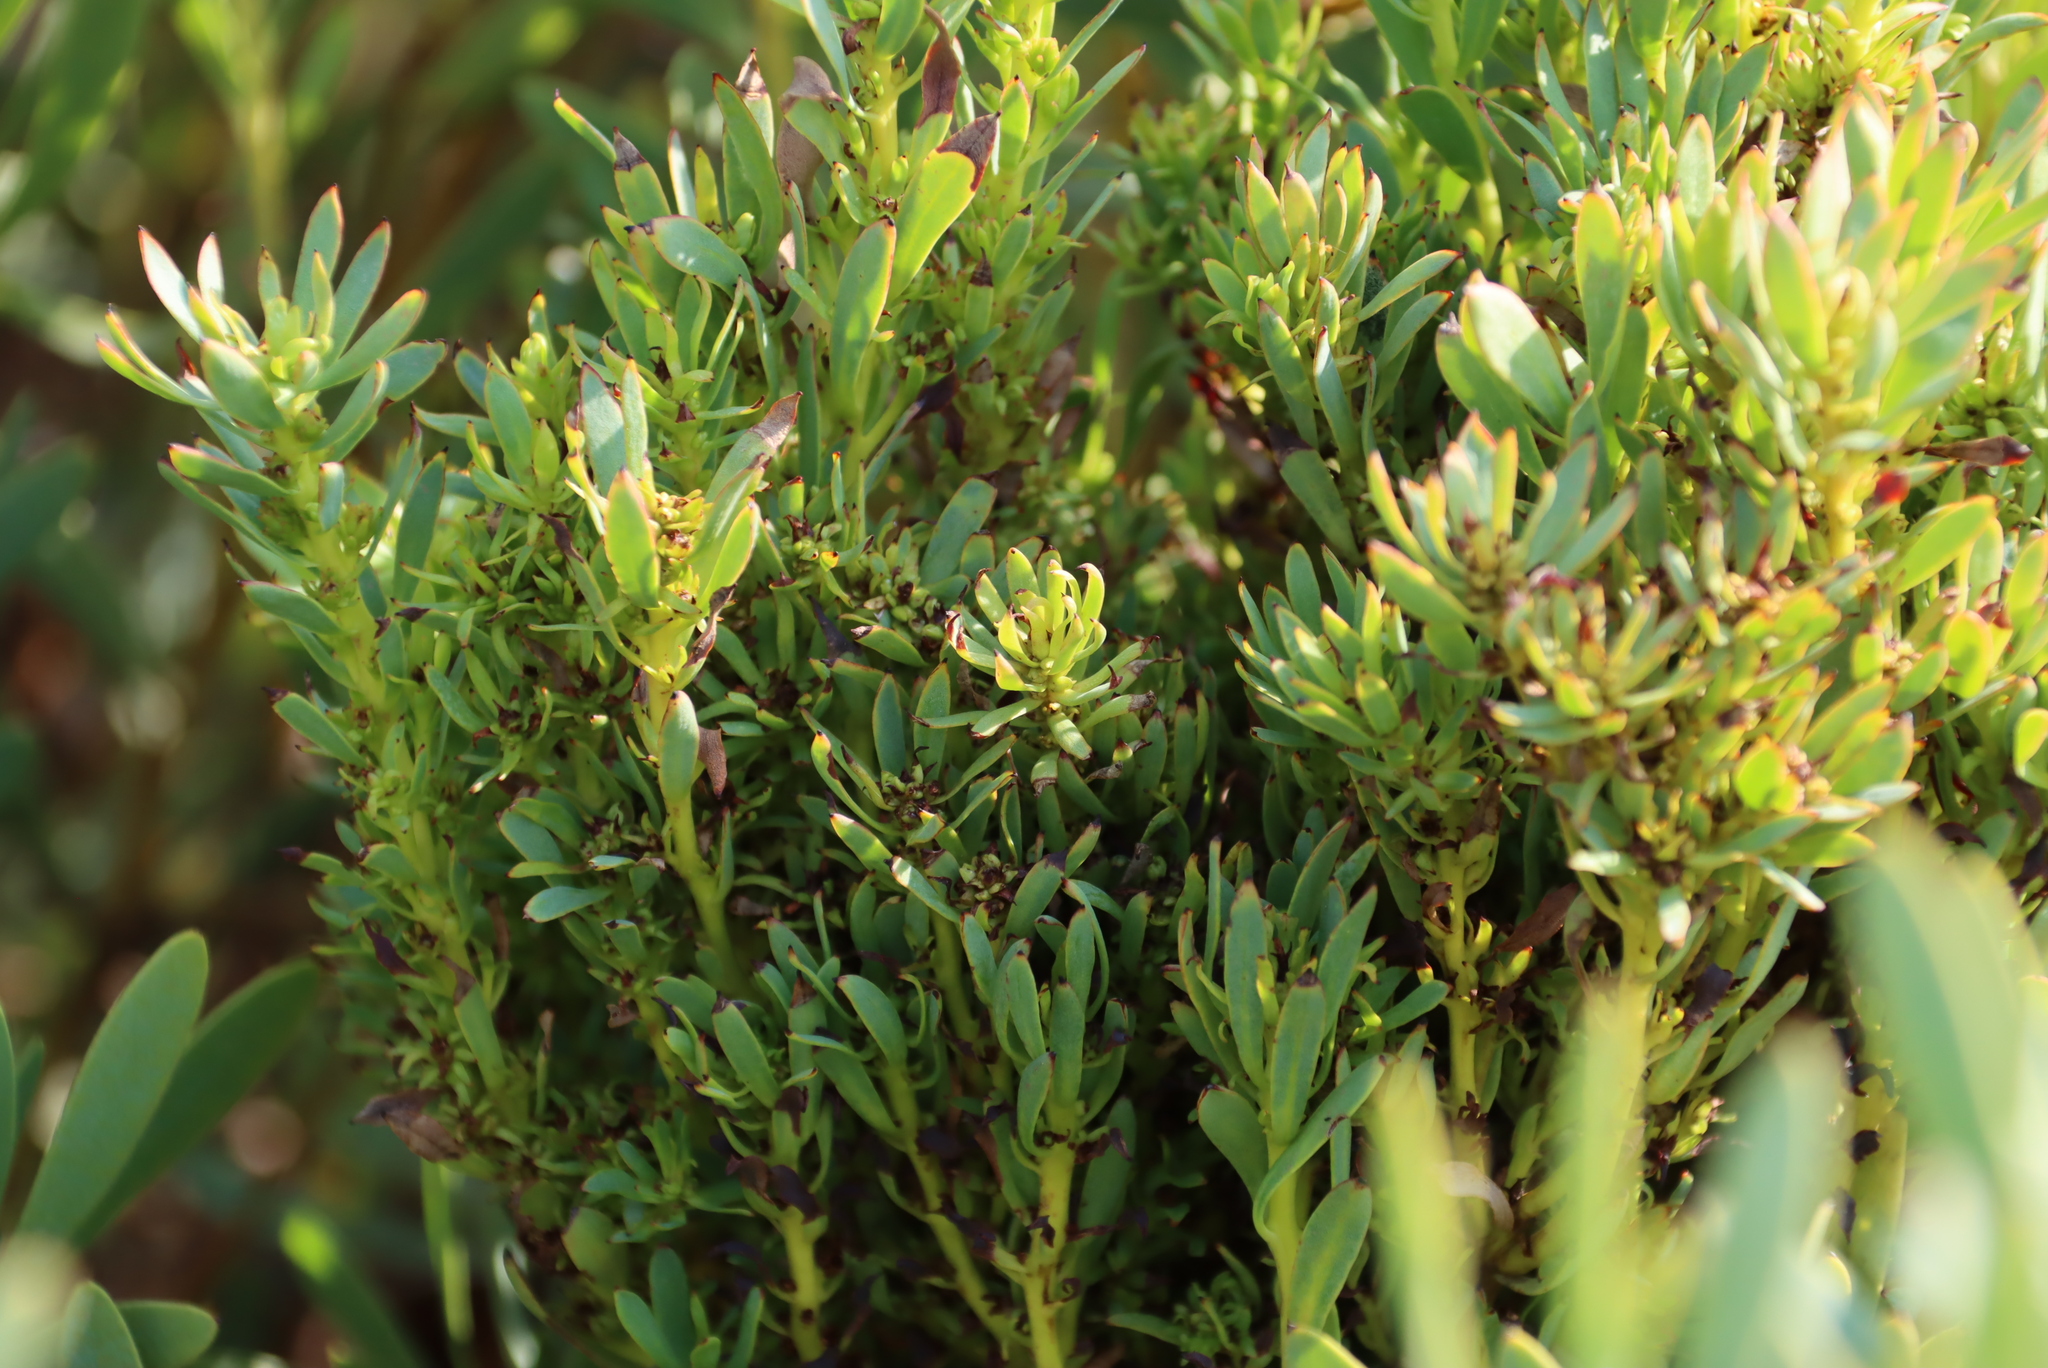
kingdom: Bacteria
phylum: Firmicutes
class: Bacilli
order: Acholeplasmatales
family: Acholeplasmataceae
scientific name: Acholeplasmataceae
